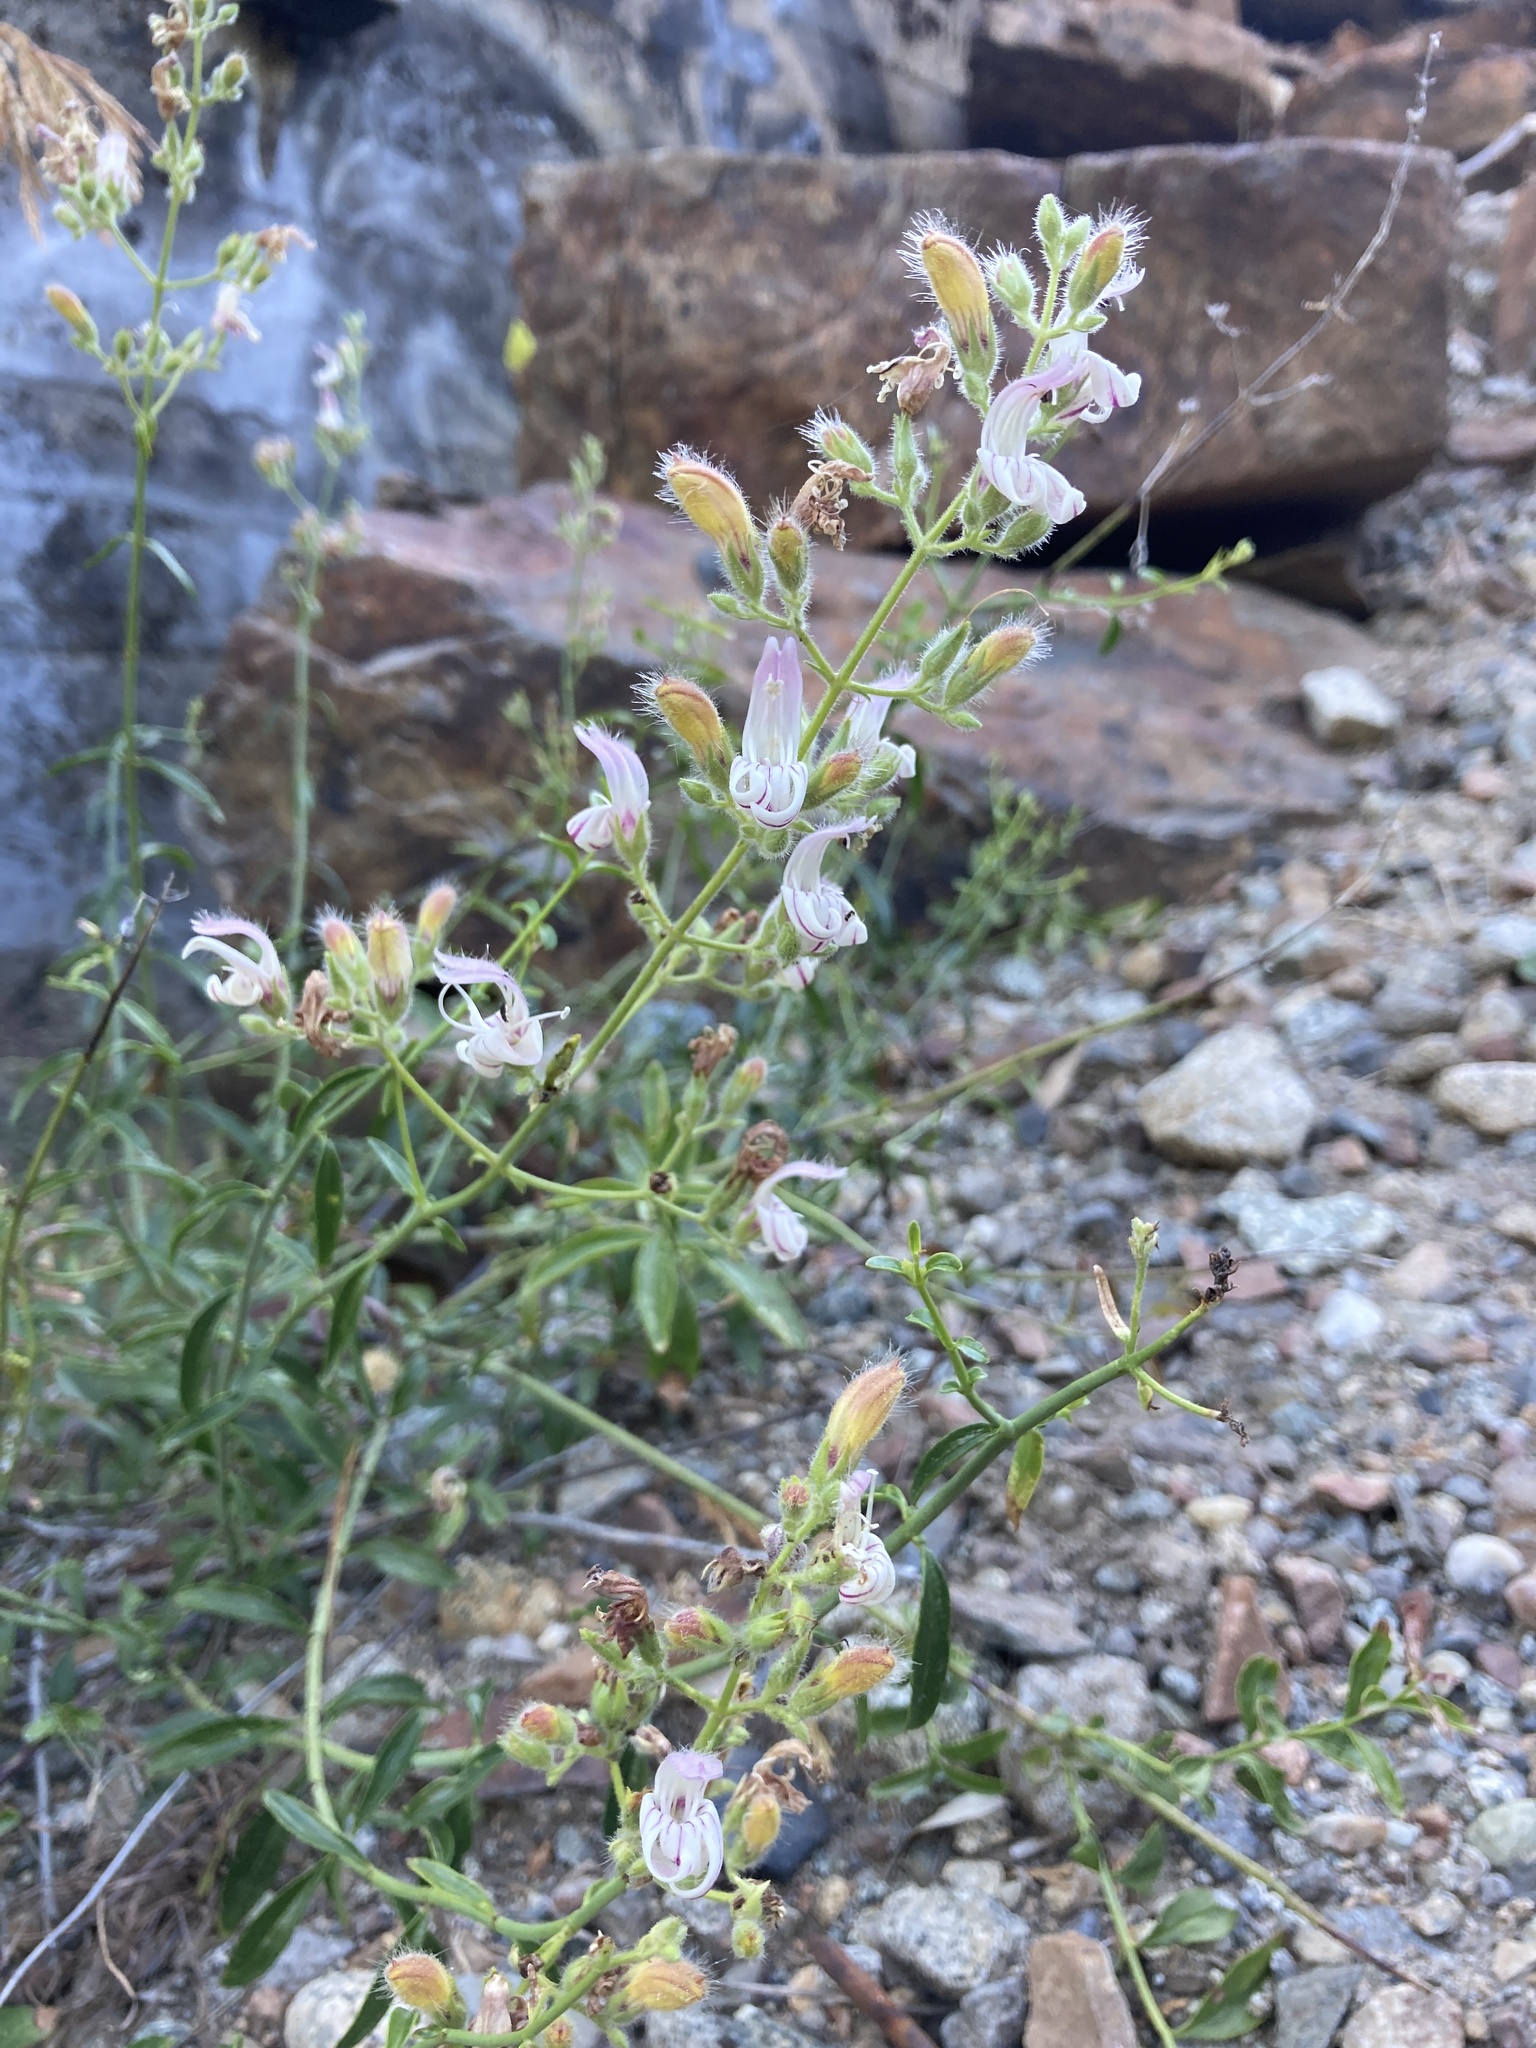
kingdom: Plantae
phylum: Tracheophyta
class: Magnoliopsida
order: Lamiales
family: Plantaginaceae
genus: Keckiella
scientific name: Keckiella breviflora
